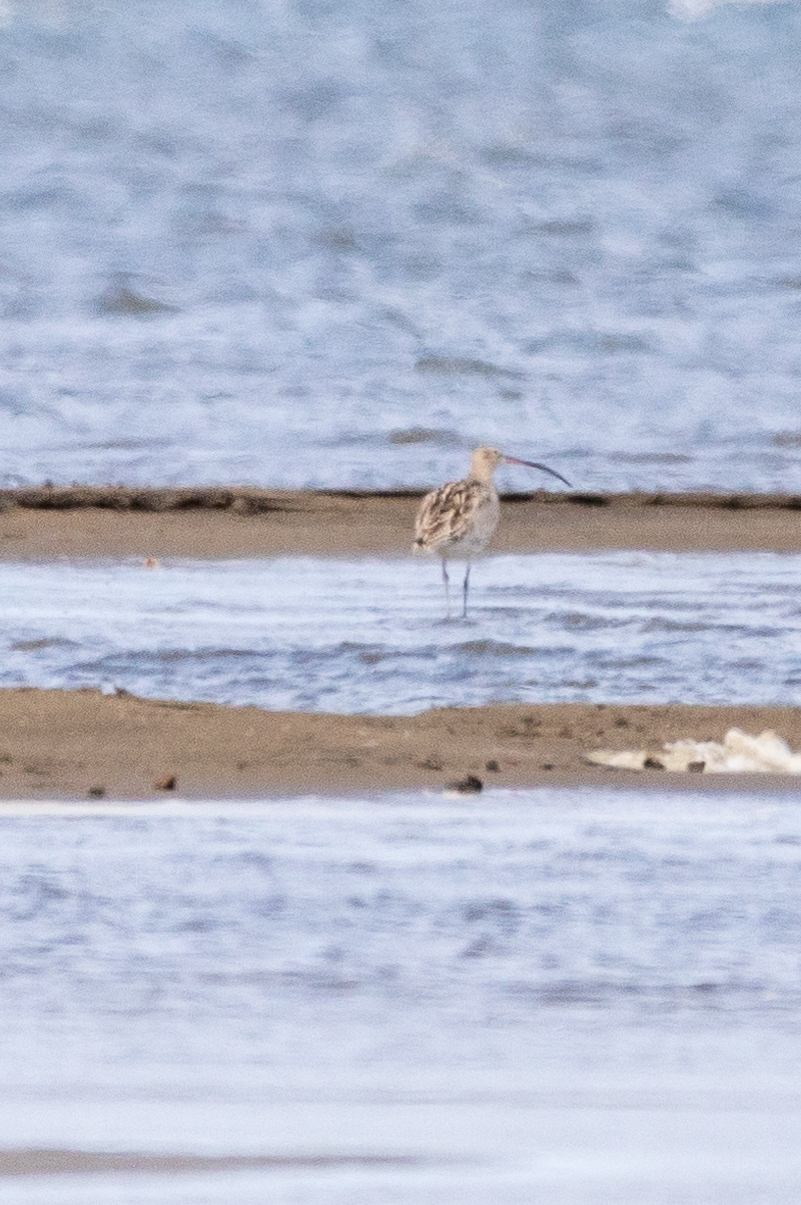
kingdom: Animalia
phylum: Chordata
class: Aves
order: Charadriiformes
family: Scolopacidae
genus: Numenius
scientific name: Numenius arquata
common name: Eurasian curlew
